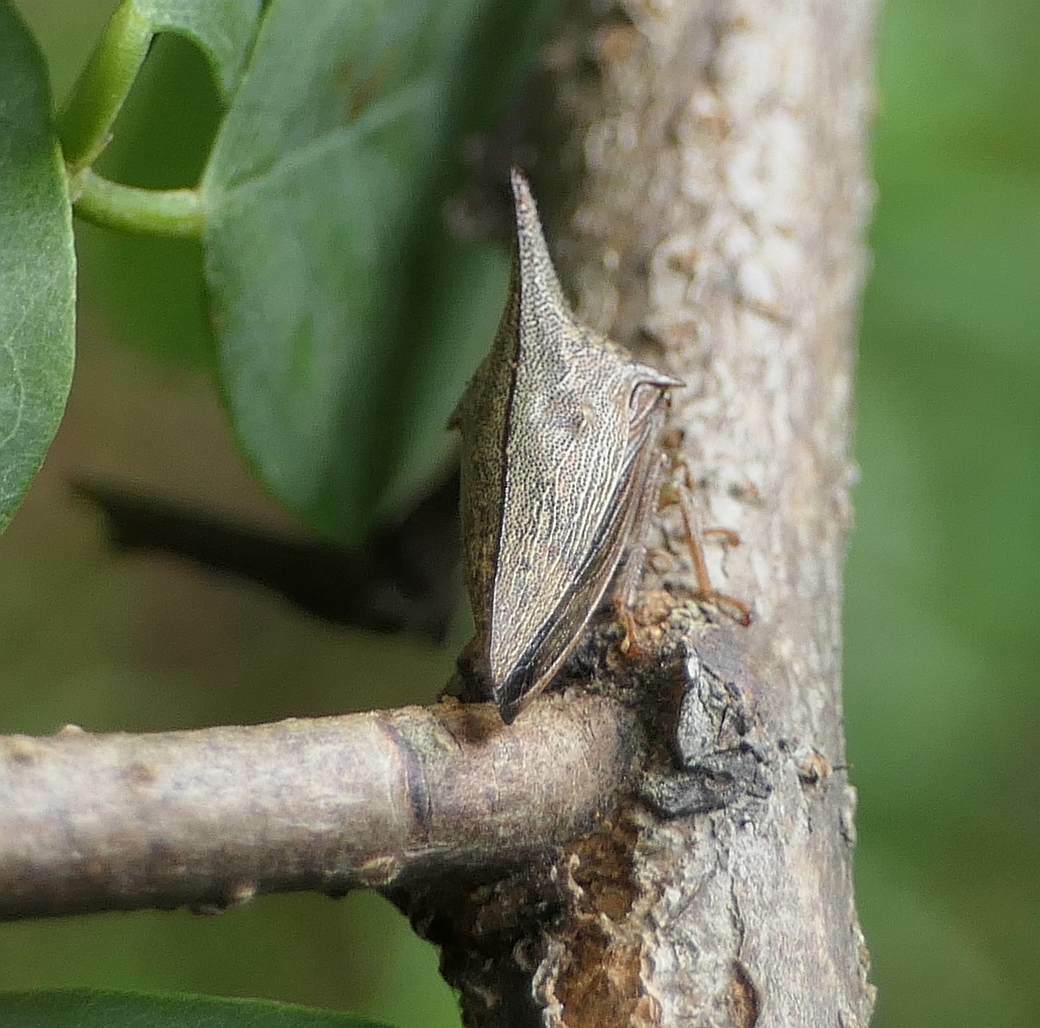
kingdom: Animalia
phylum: Arthropoda
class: Insecta
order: Hemiptera
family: Membracidae
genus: Thelia
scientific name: Thelia bimaculata
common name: Locust treehopper
